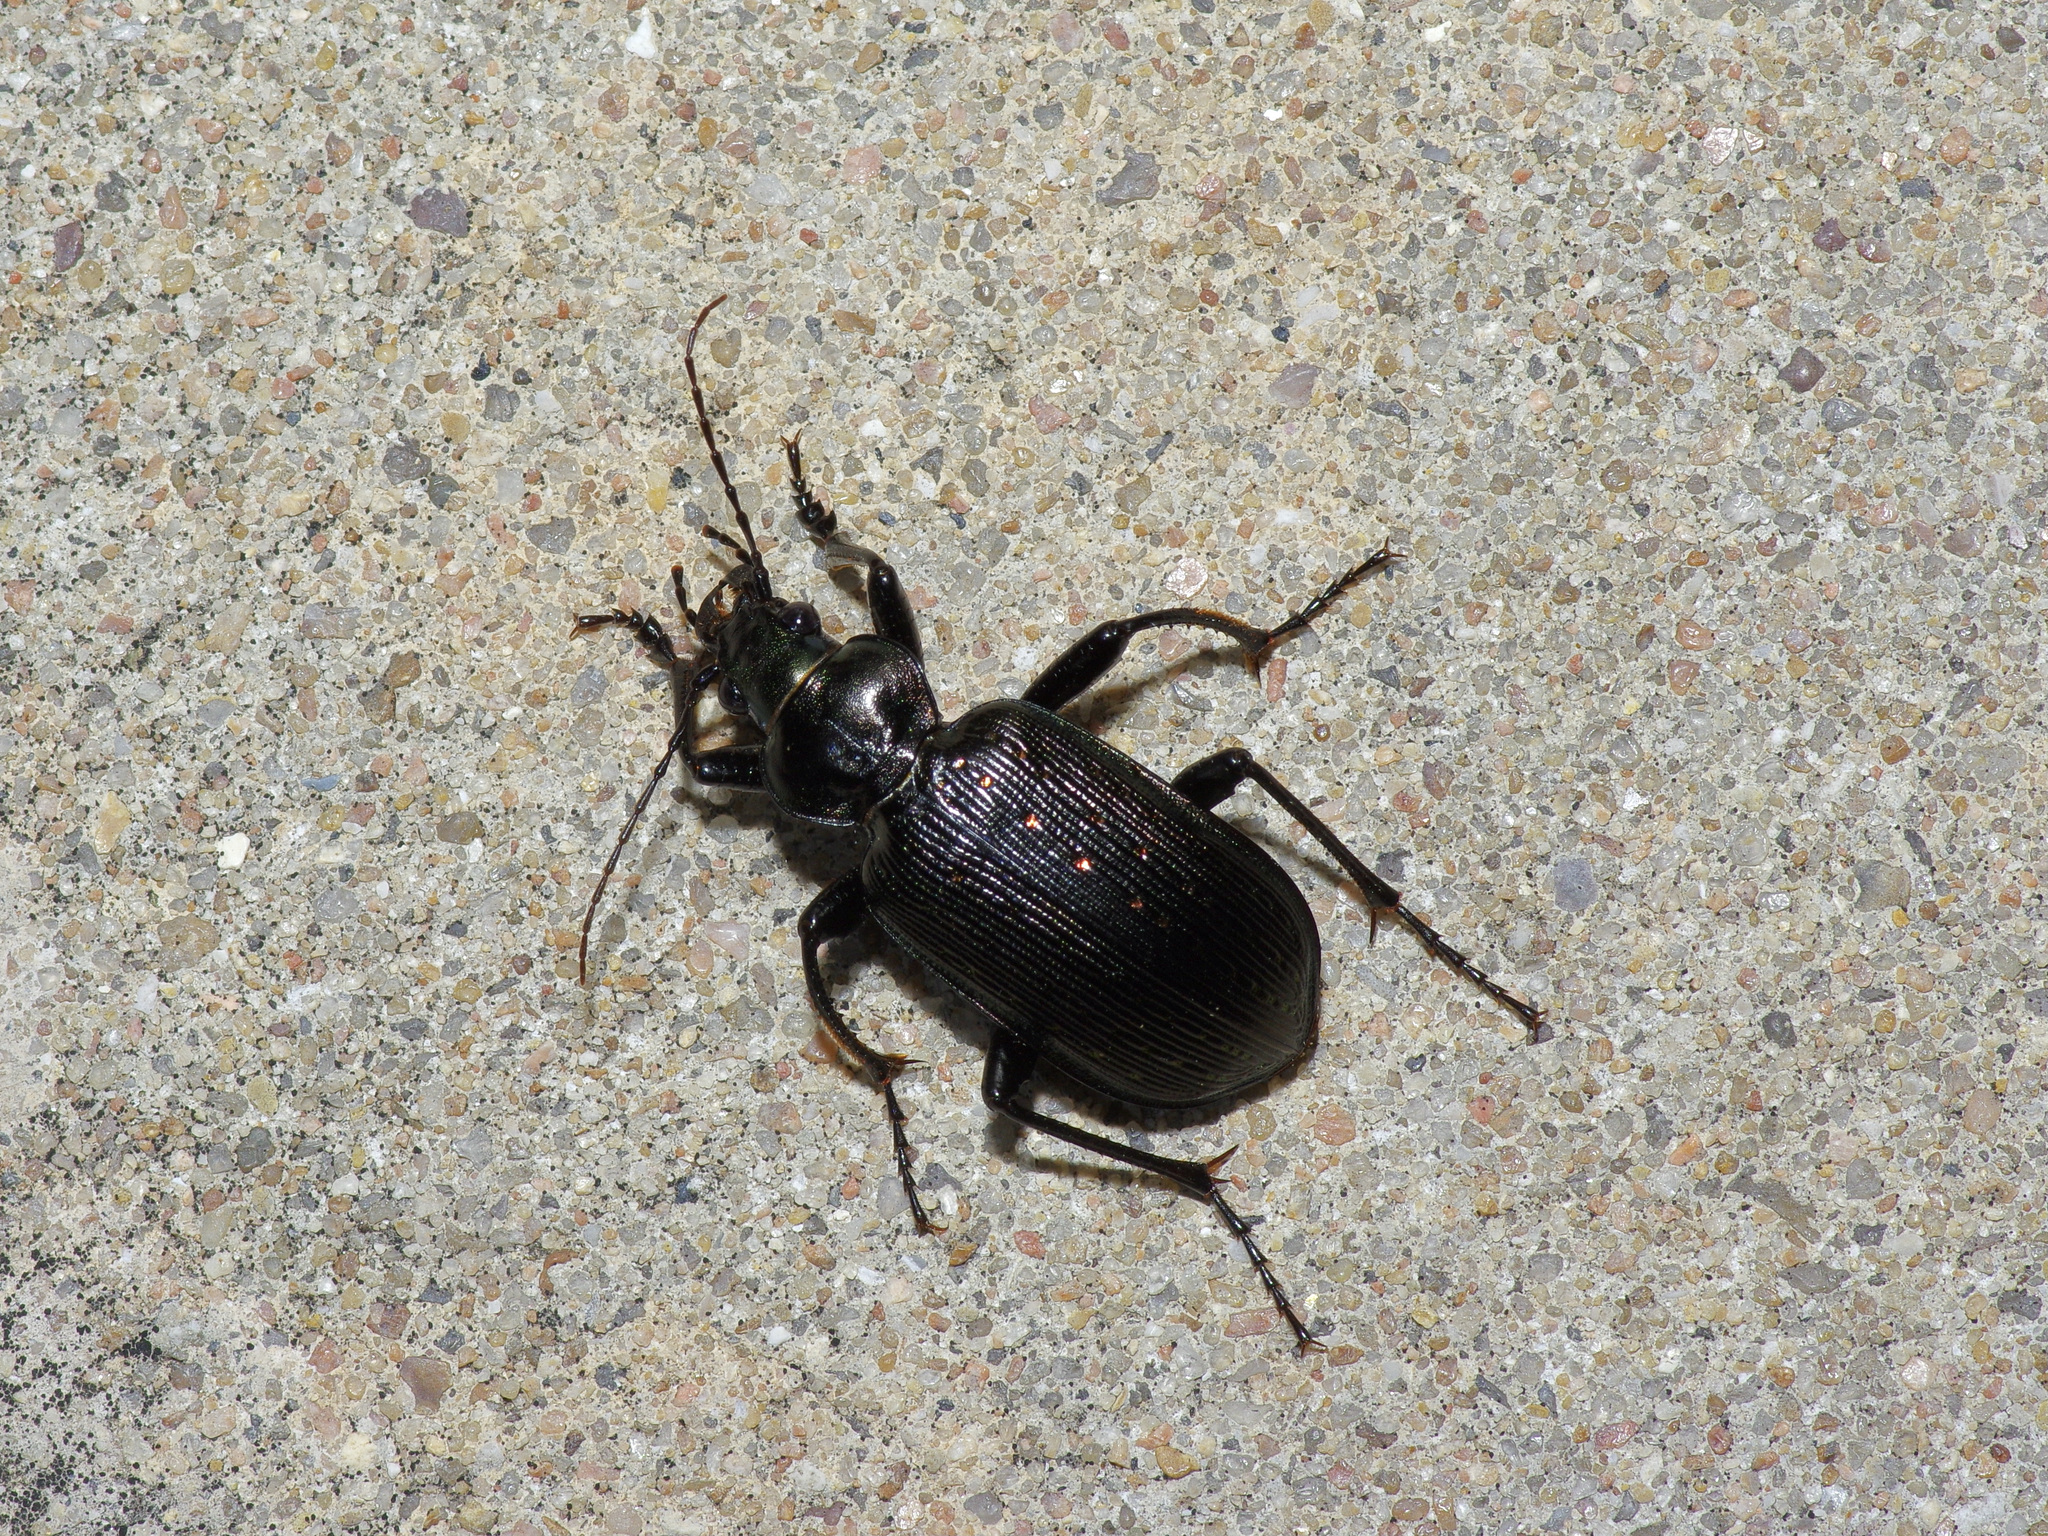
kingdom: Animalia
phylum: Arthropoda
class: Insecta
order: Coleoptera
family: Carabidae
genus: Calosoma
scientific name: Calosoma sayi
